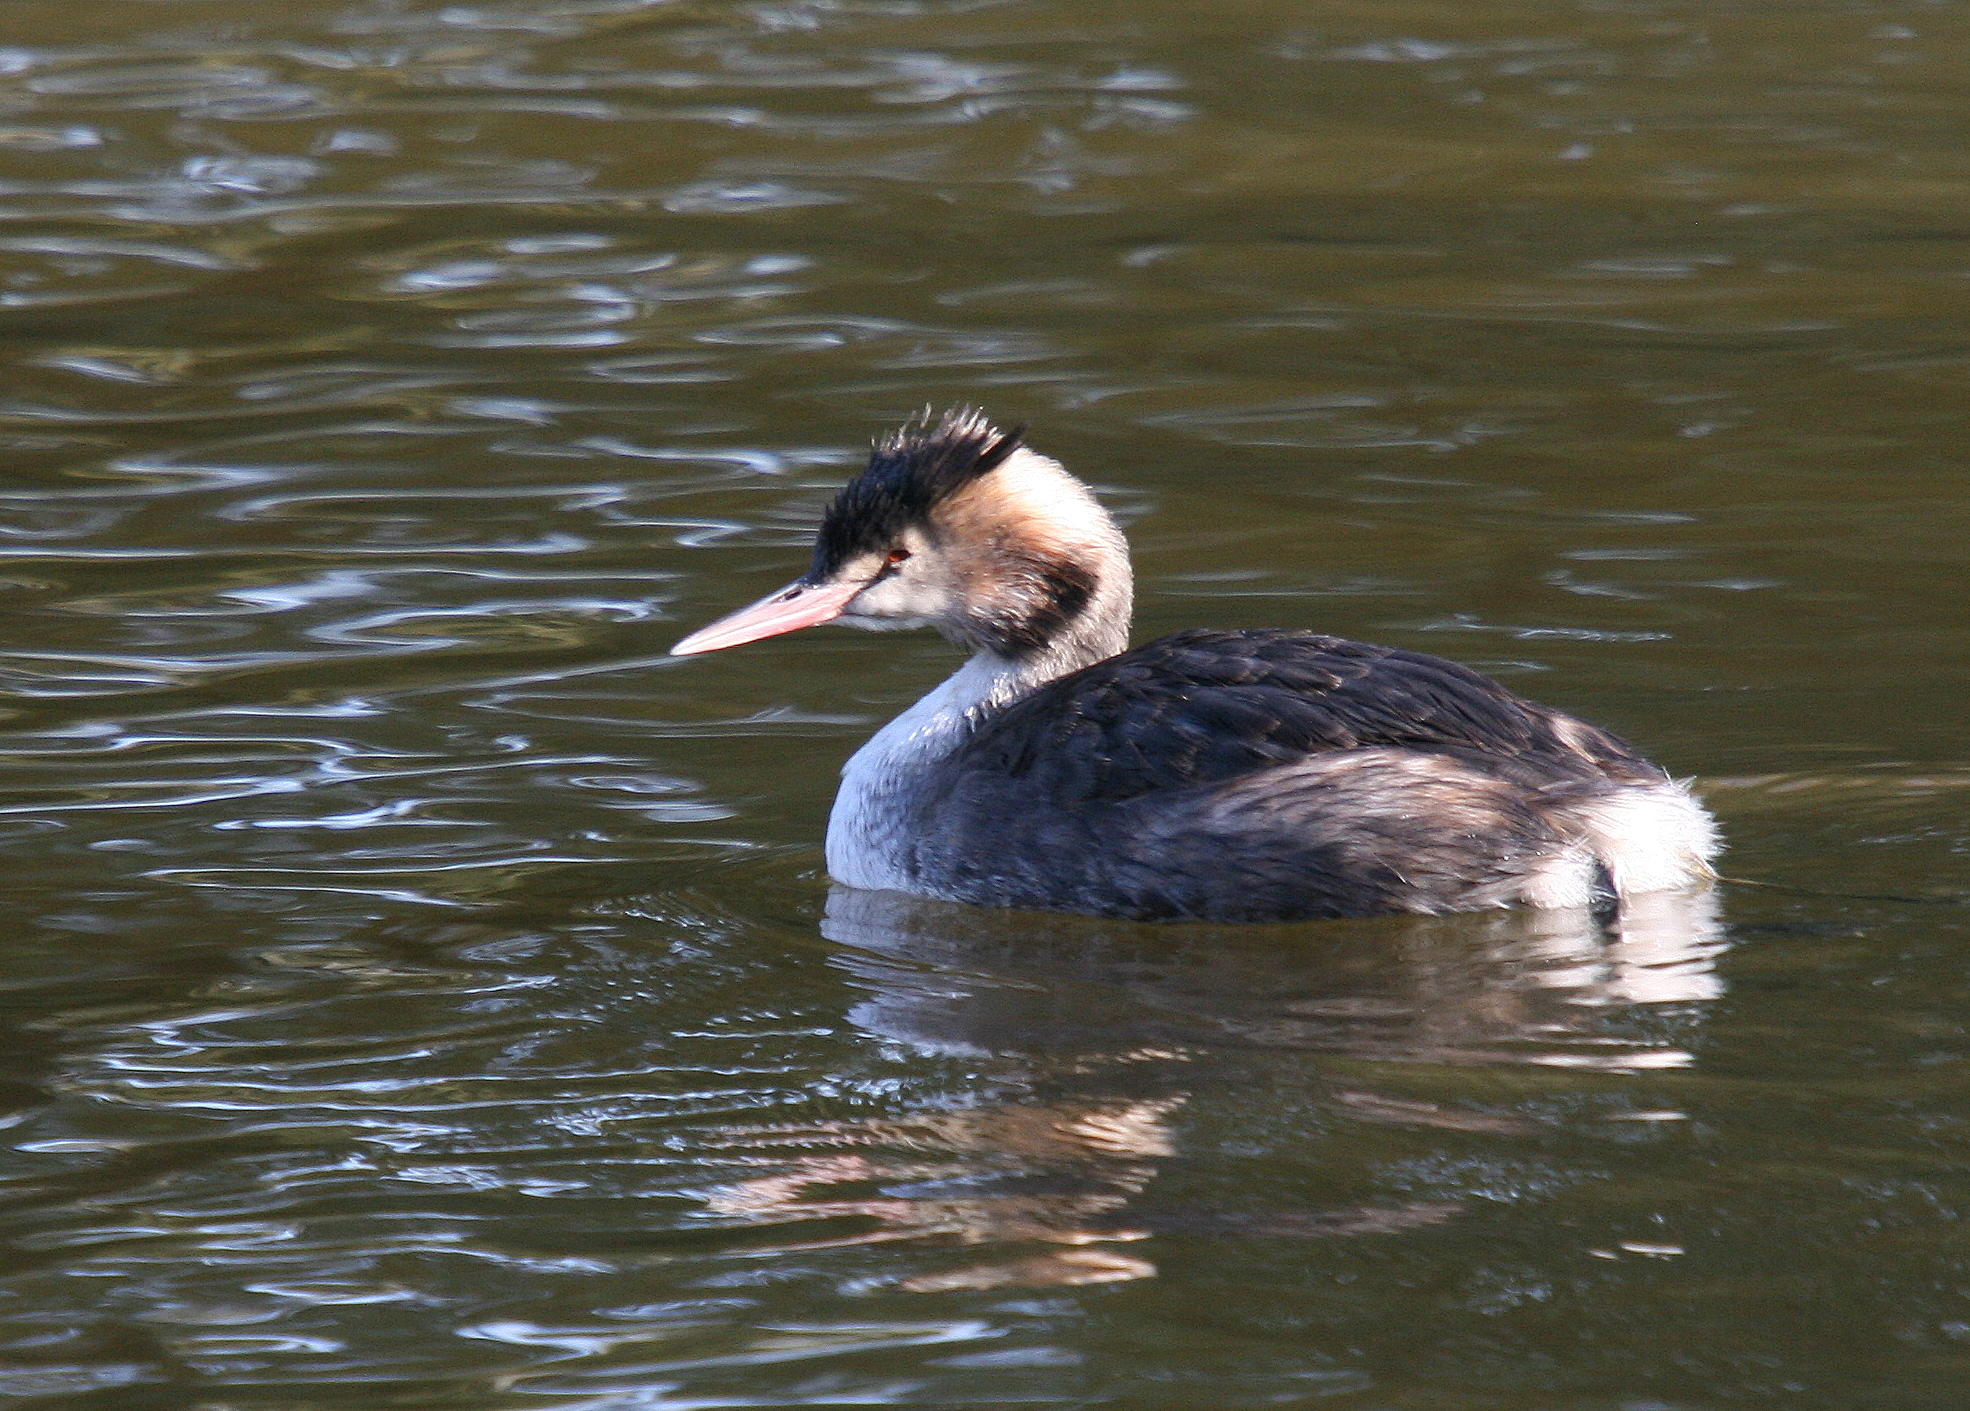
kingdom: Animalia
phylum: Chordata
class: Aves
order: Podicipediformes
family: Podicipedidae
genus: Podiceps
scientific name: Podiceps cristatus
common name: Great crested grebe
